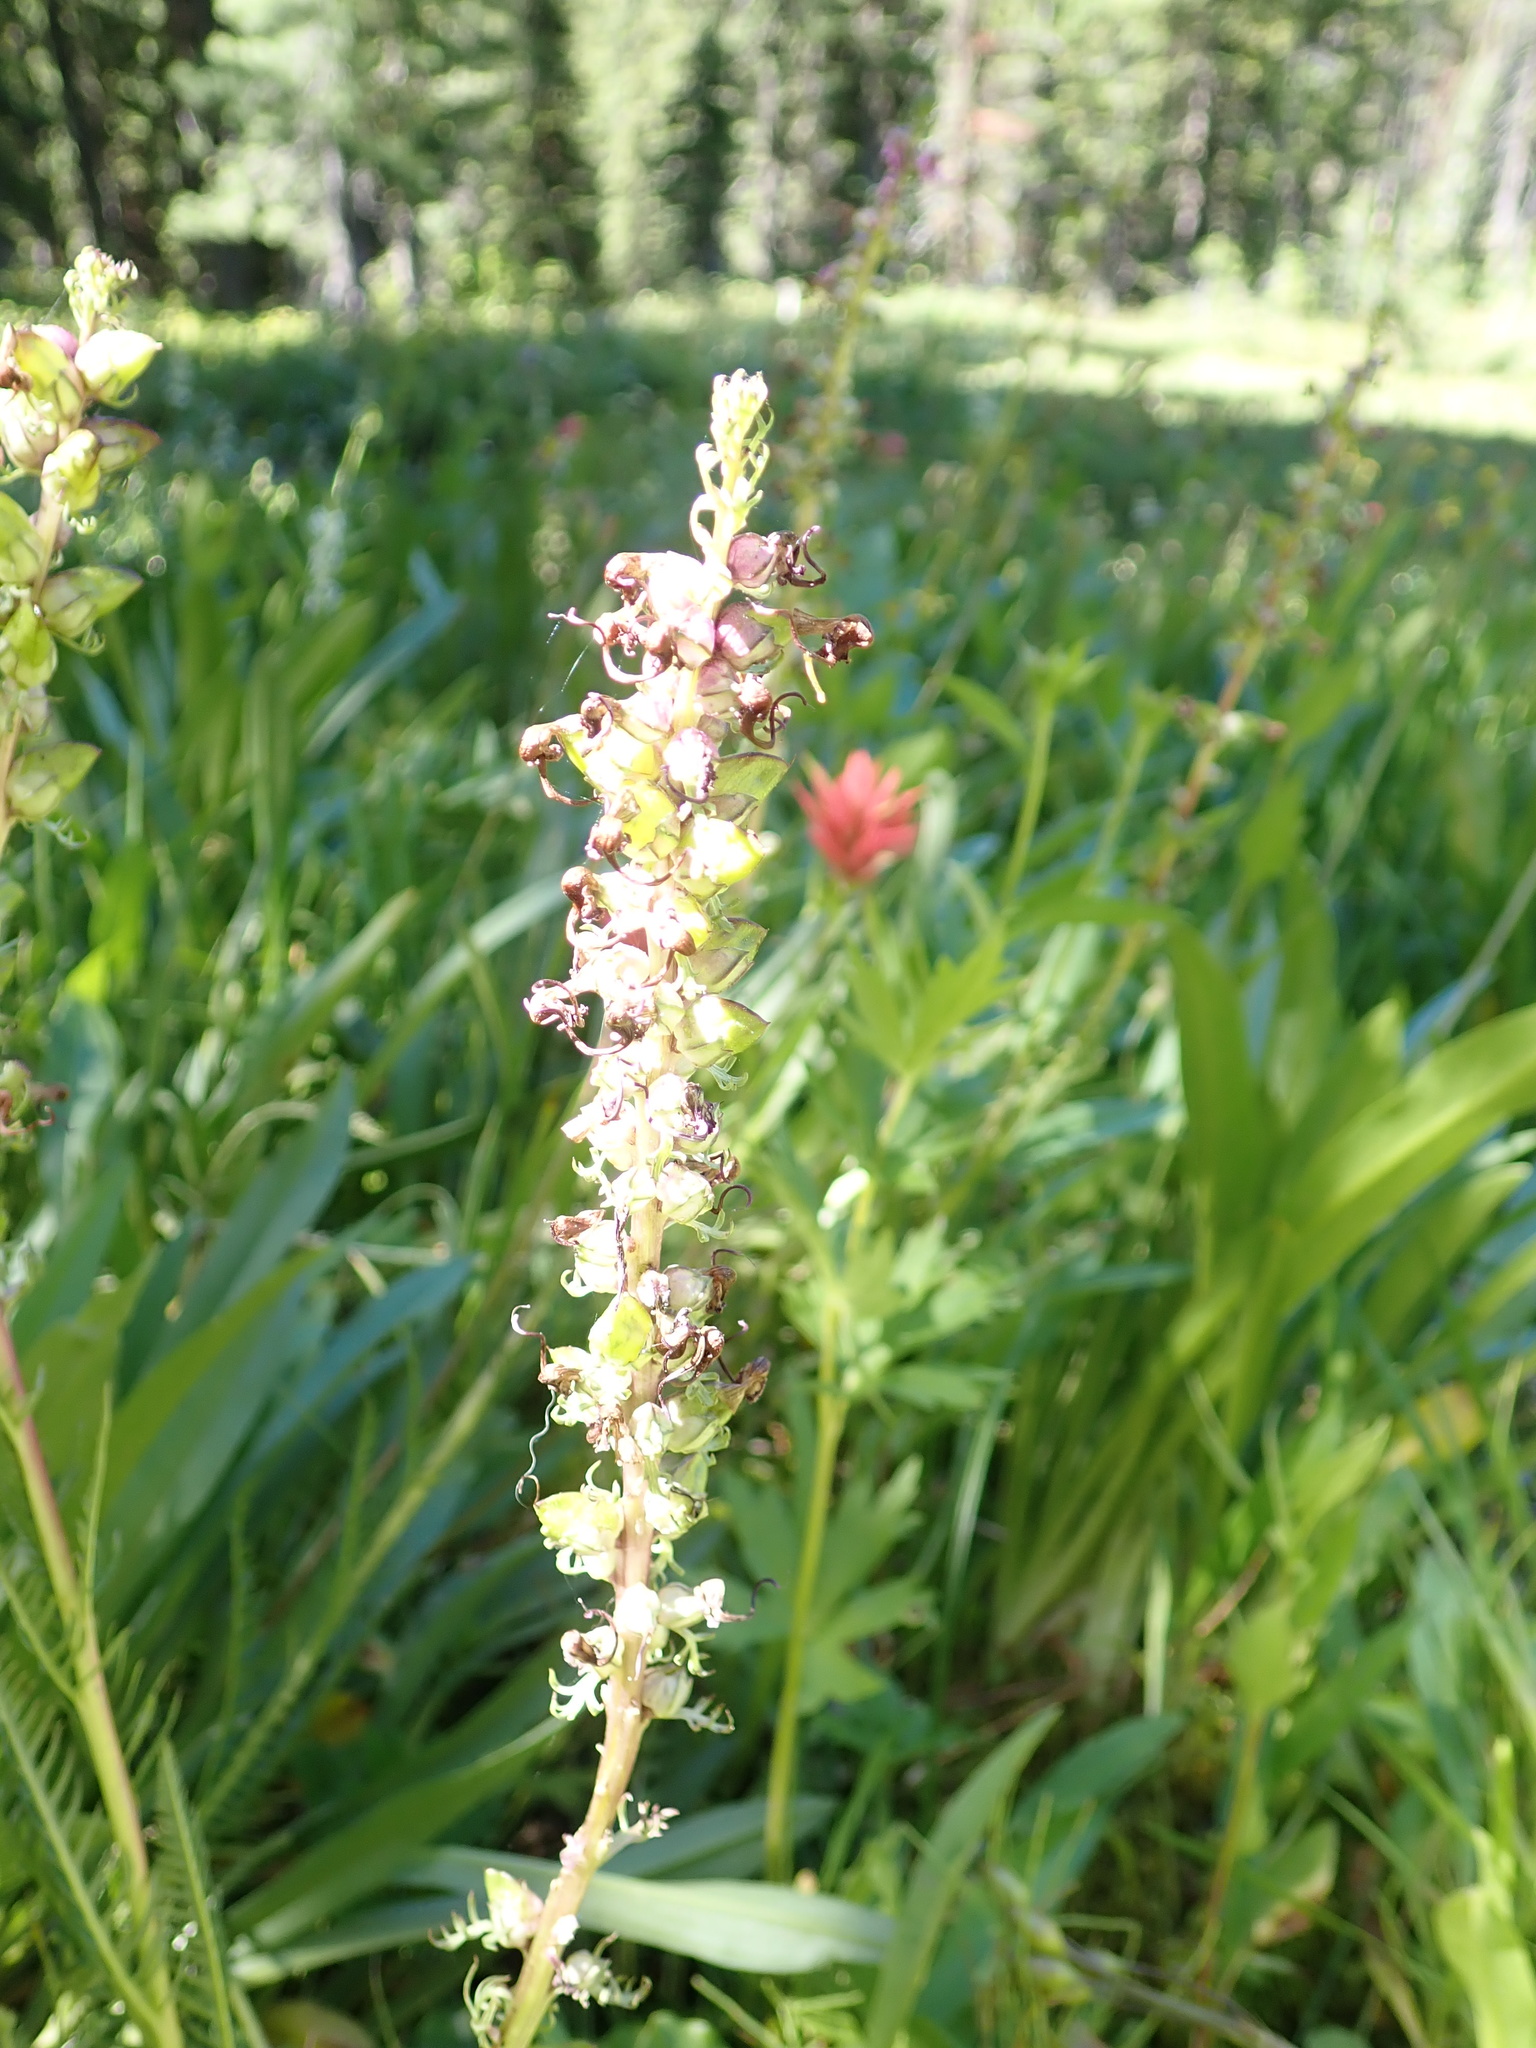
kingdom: Plantae
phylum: Tracheophyta
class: Magnoliopsida
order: Lamiales
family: Orobanchaceae
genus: Pedicularis
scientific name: Pedicularis groenlandica
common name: Elephant's-head
